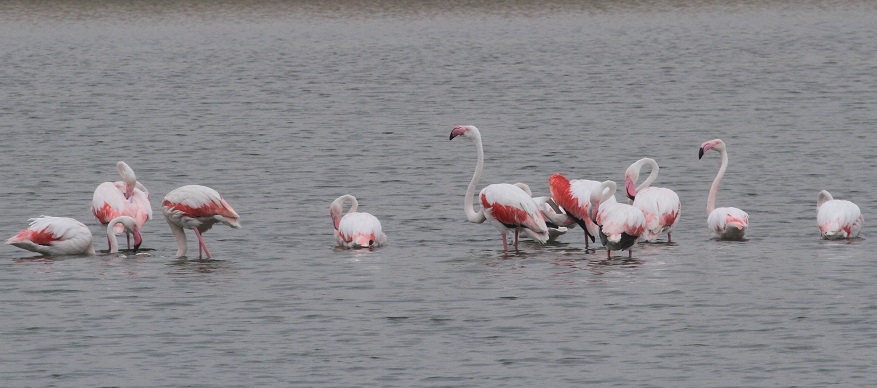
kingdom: Animalia
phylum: Chordata
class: Aves
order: Phoenicopteriformes
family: Phoenicopteridae
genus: Phoenicopterus
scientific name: Phoenicopterus roseus
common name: Greater flamingo
